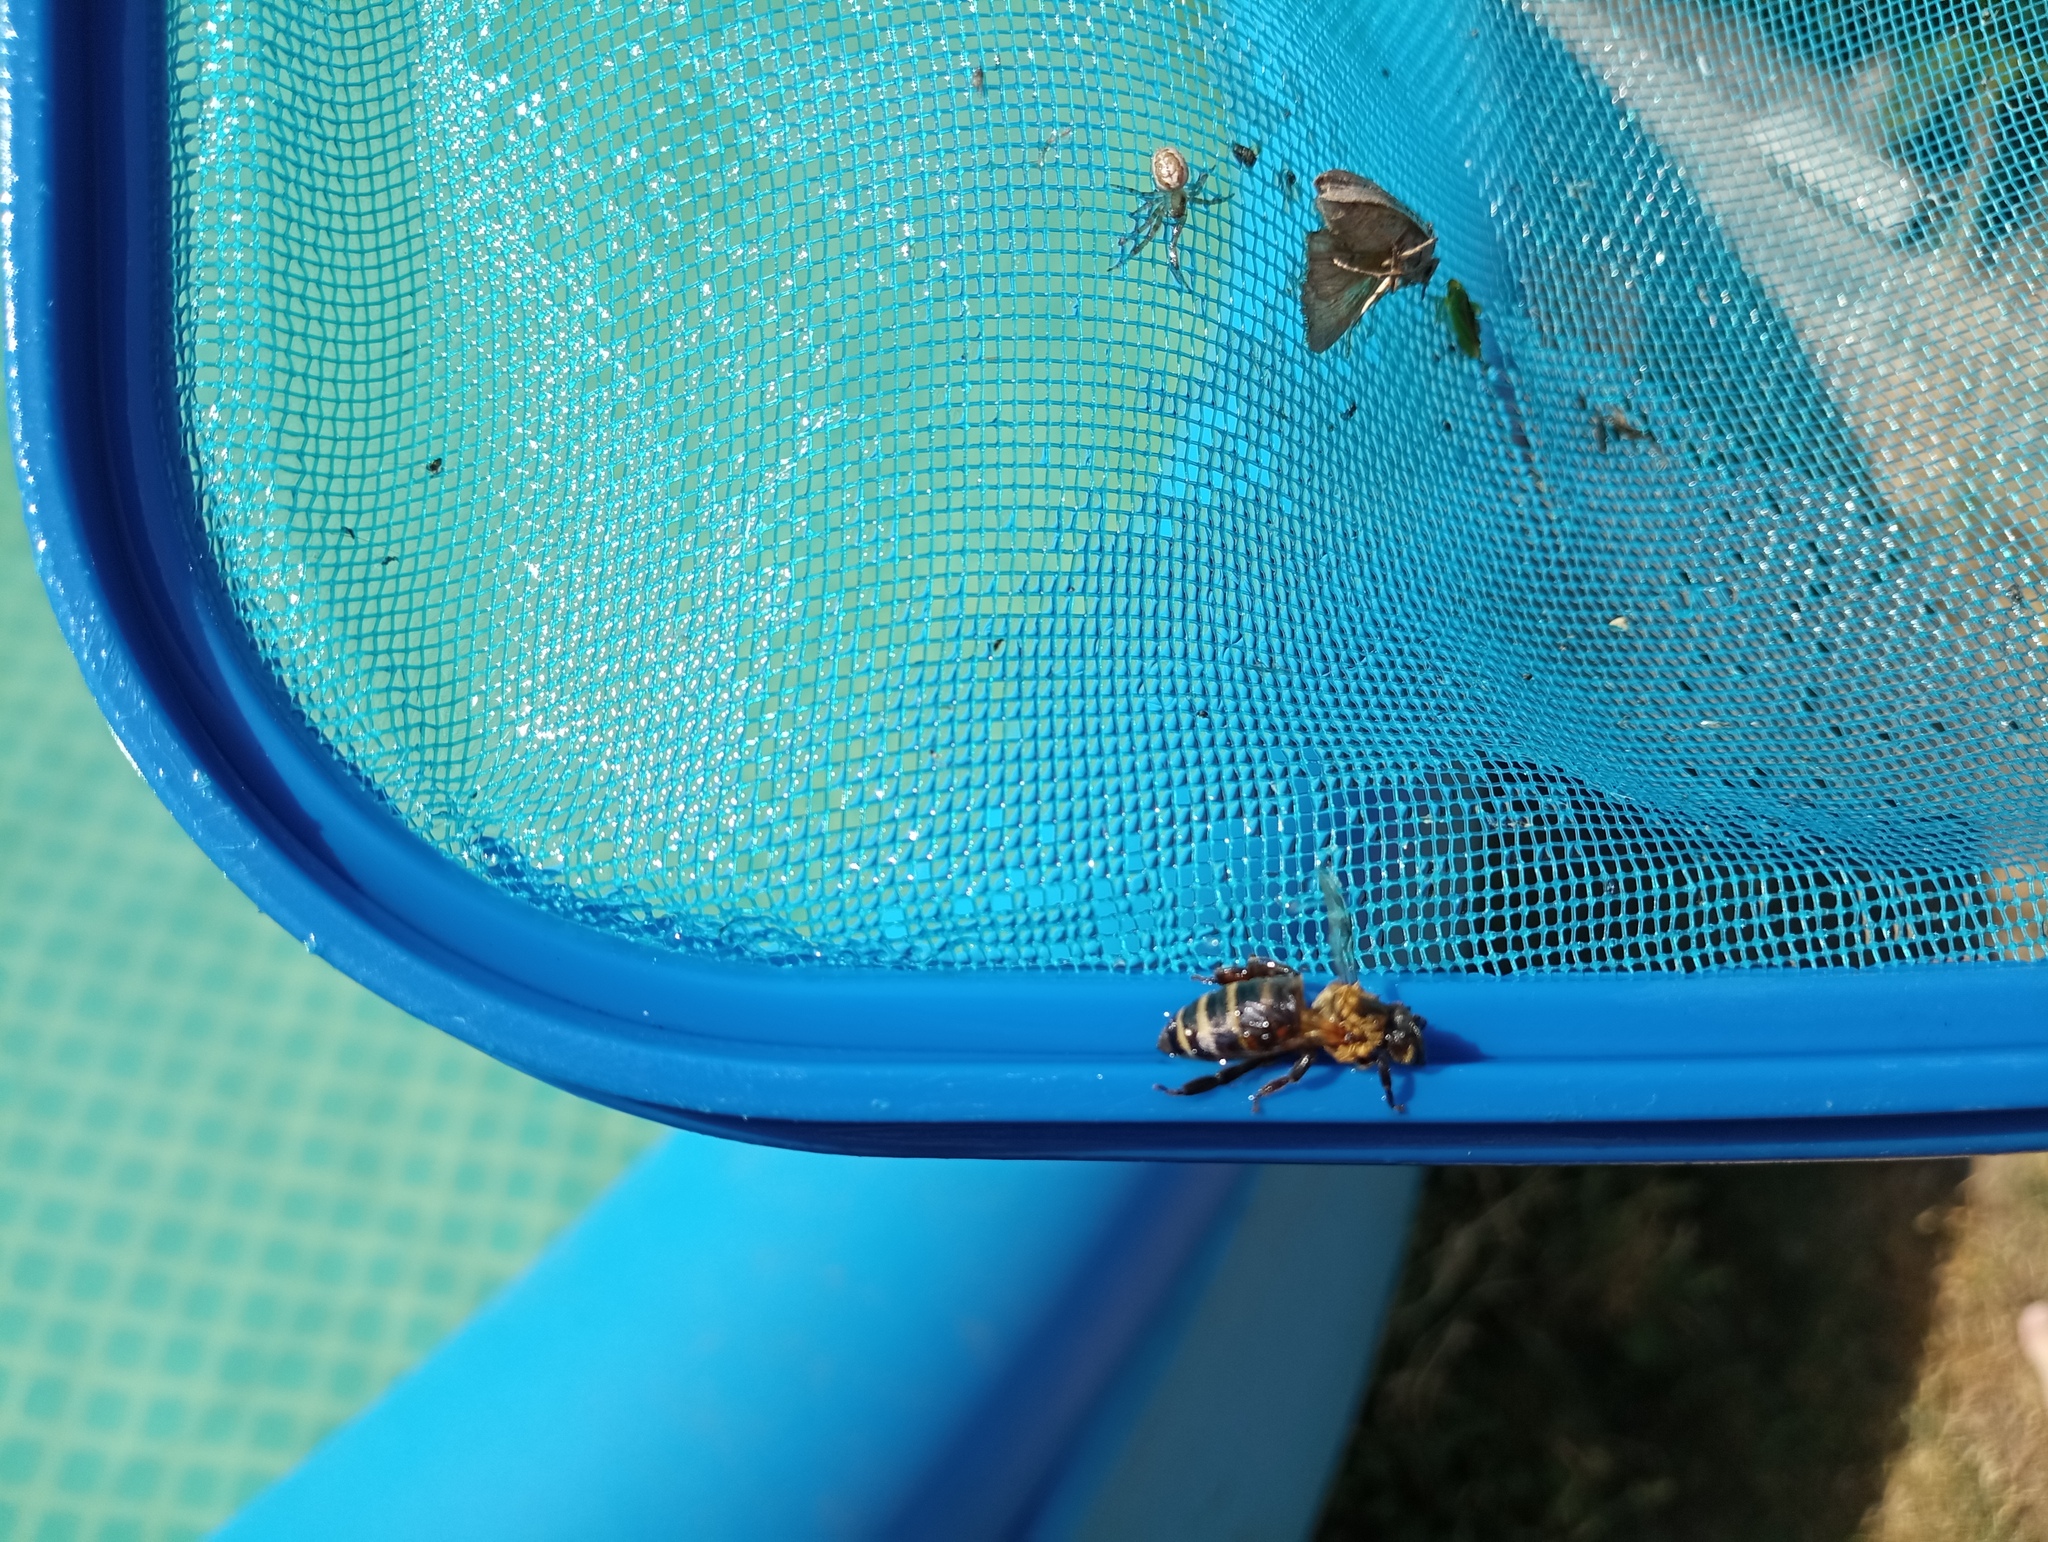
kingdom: Animalia
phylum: Arthropoda
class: Insecta
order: Hymenoptera
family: Apidae
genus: Apis
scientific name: Apis mellifera
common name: Honey bee
